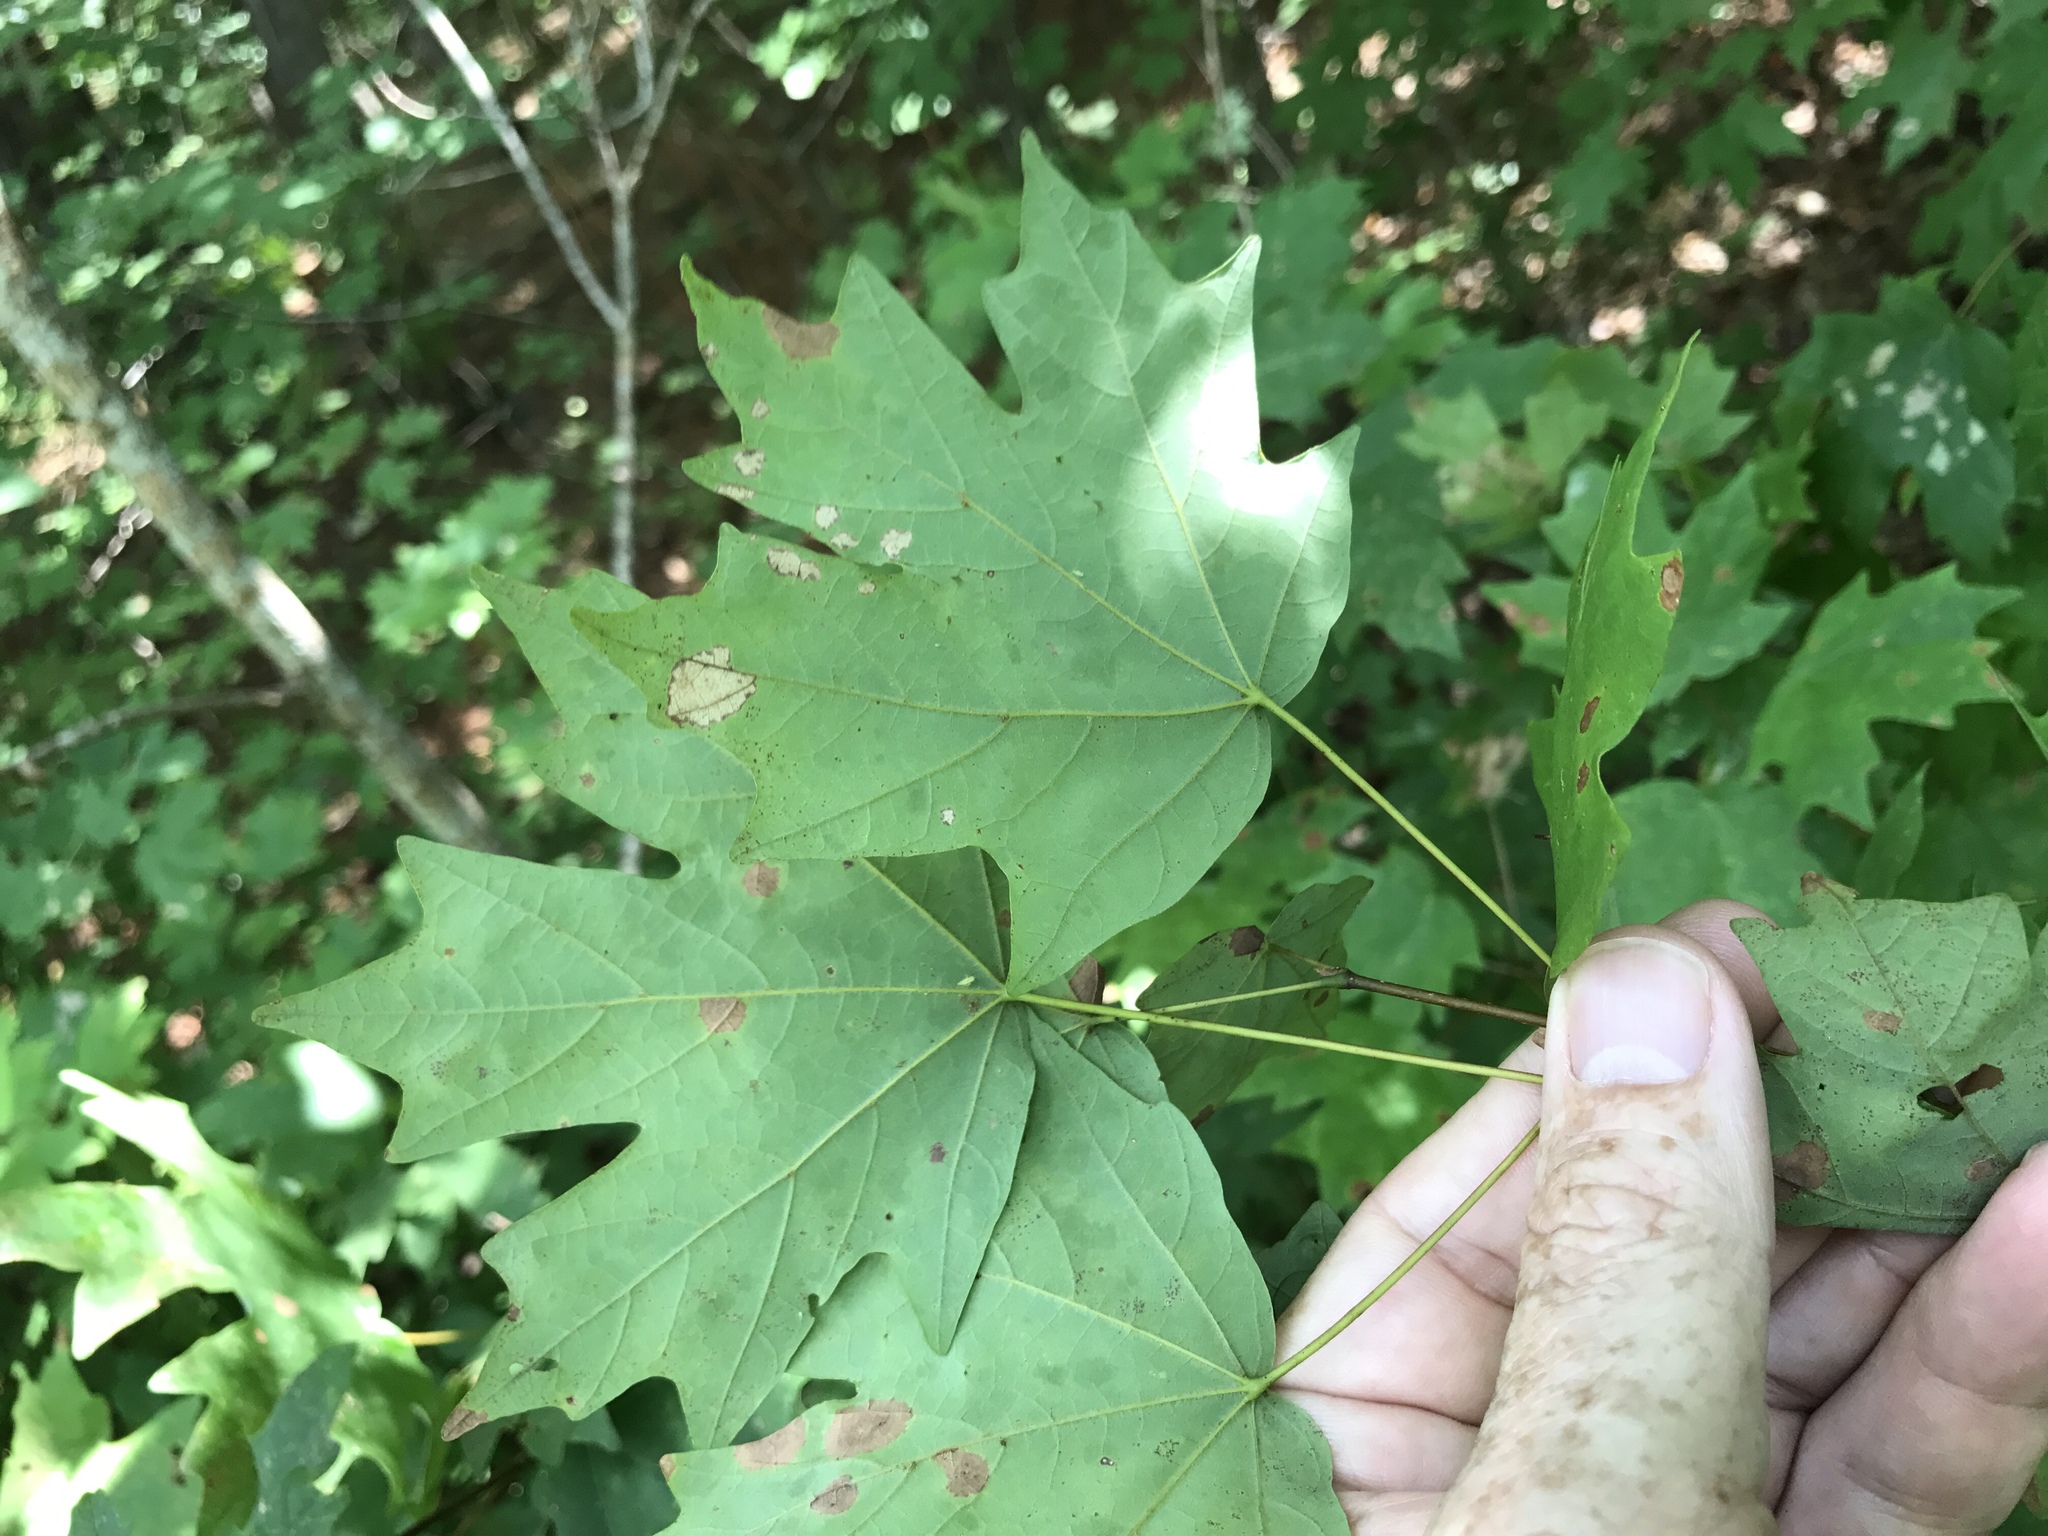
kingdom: Plantae
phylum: Tracheophyta
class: Magnoliopsida
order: Sapindales
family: Sapindaceae
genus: Acer
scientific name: Acer floridanum
